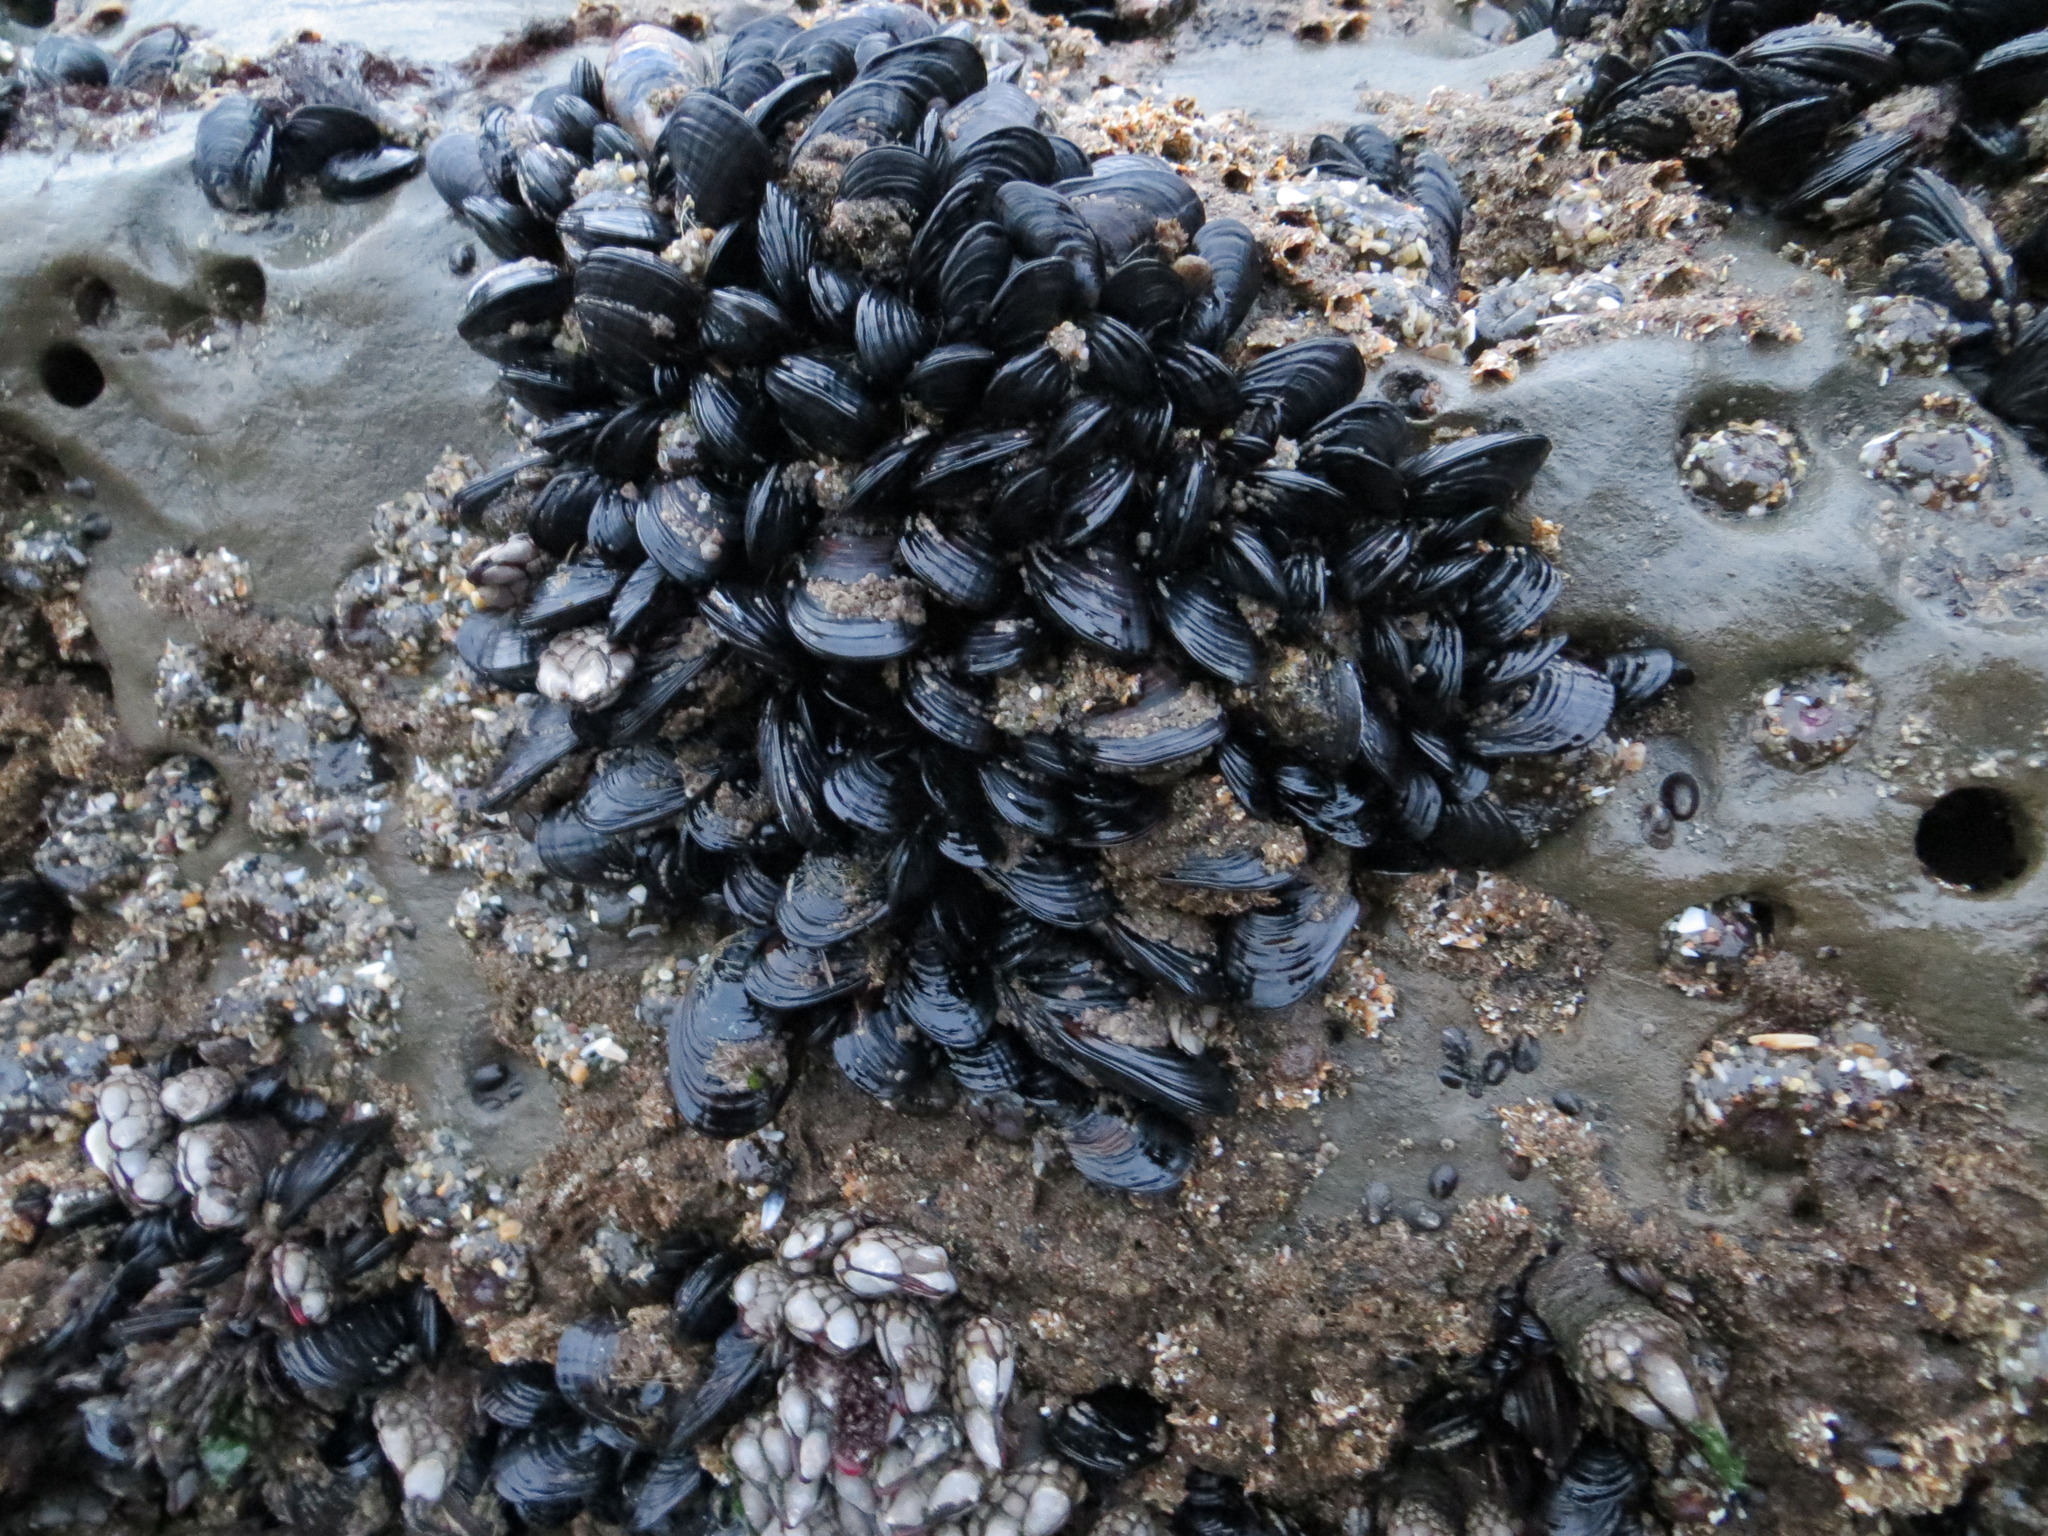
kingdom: Animalia
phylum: Mollusca
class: Bivalvia
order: Mytilida
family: Mytilidae
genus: Mytilus
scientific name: Mytilus californianus
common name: California mussel
